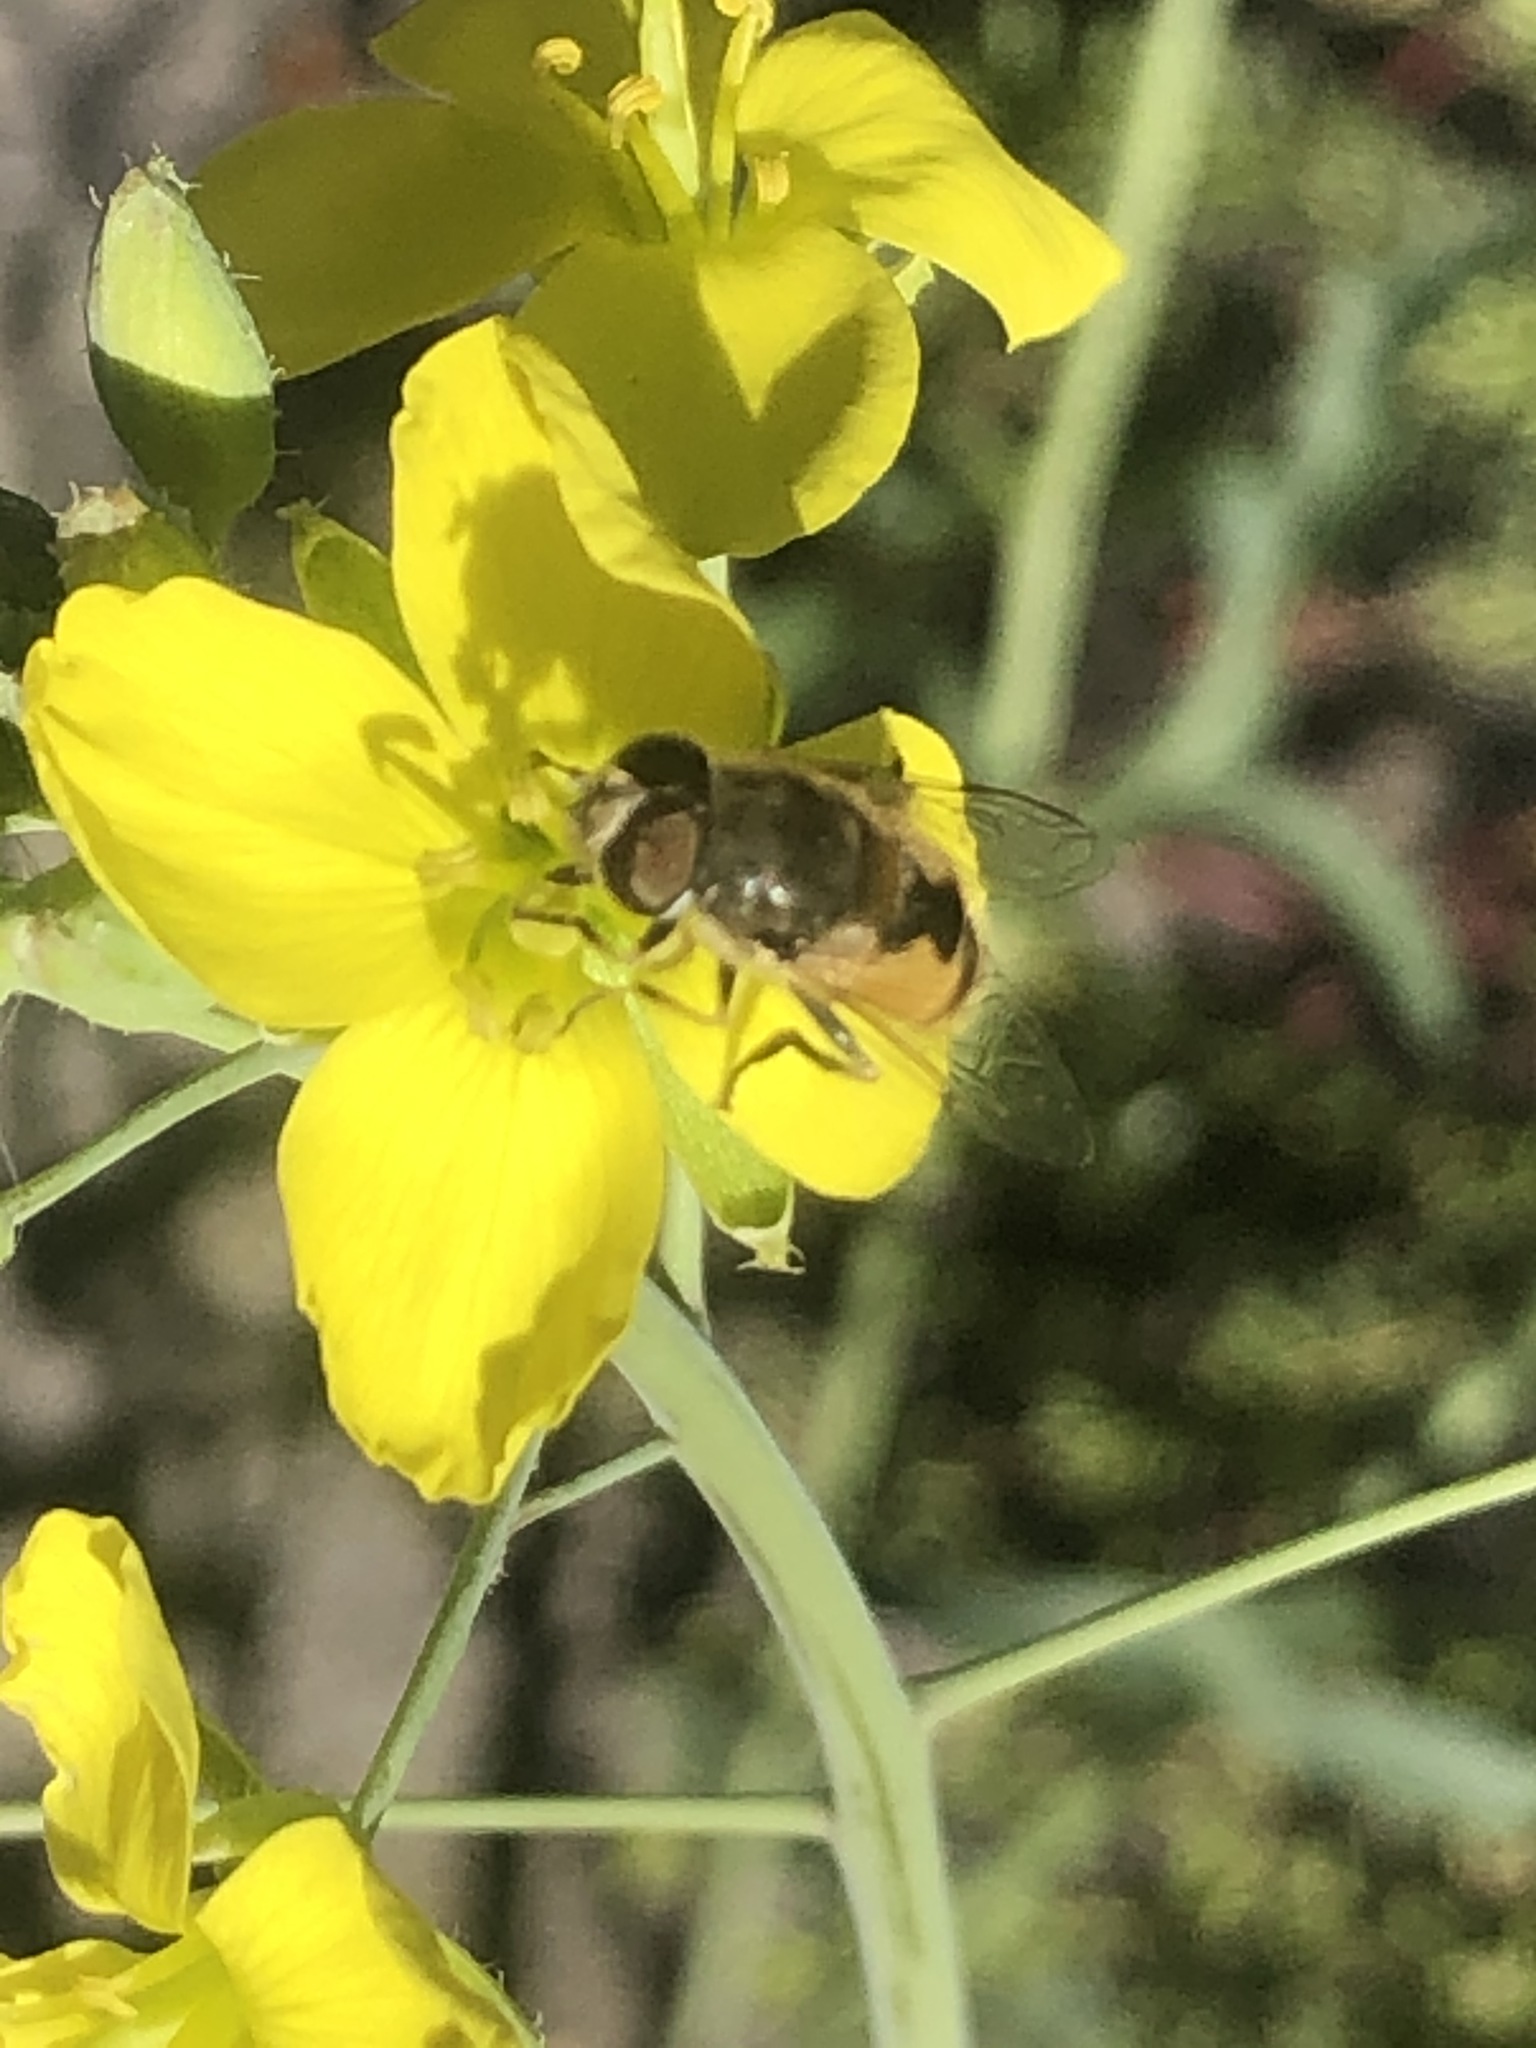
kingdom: Animalia
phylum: Arthropoda
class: Insecta
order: Diptera
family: Syrphidae
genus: Eristalis
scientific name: Eristalis arbustorum
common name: Hover fly
